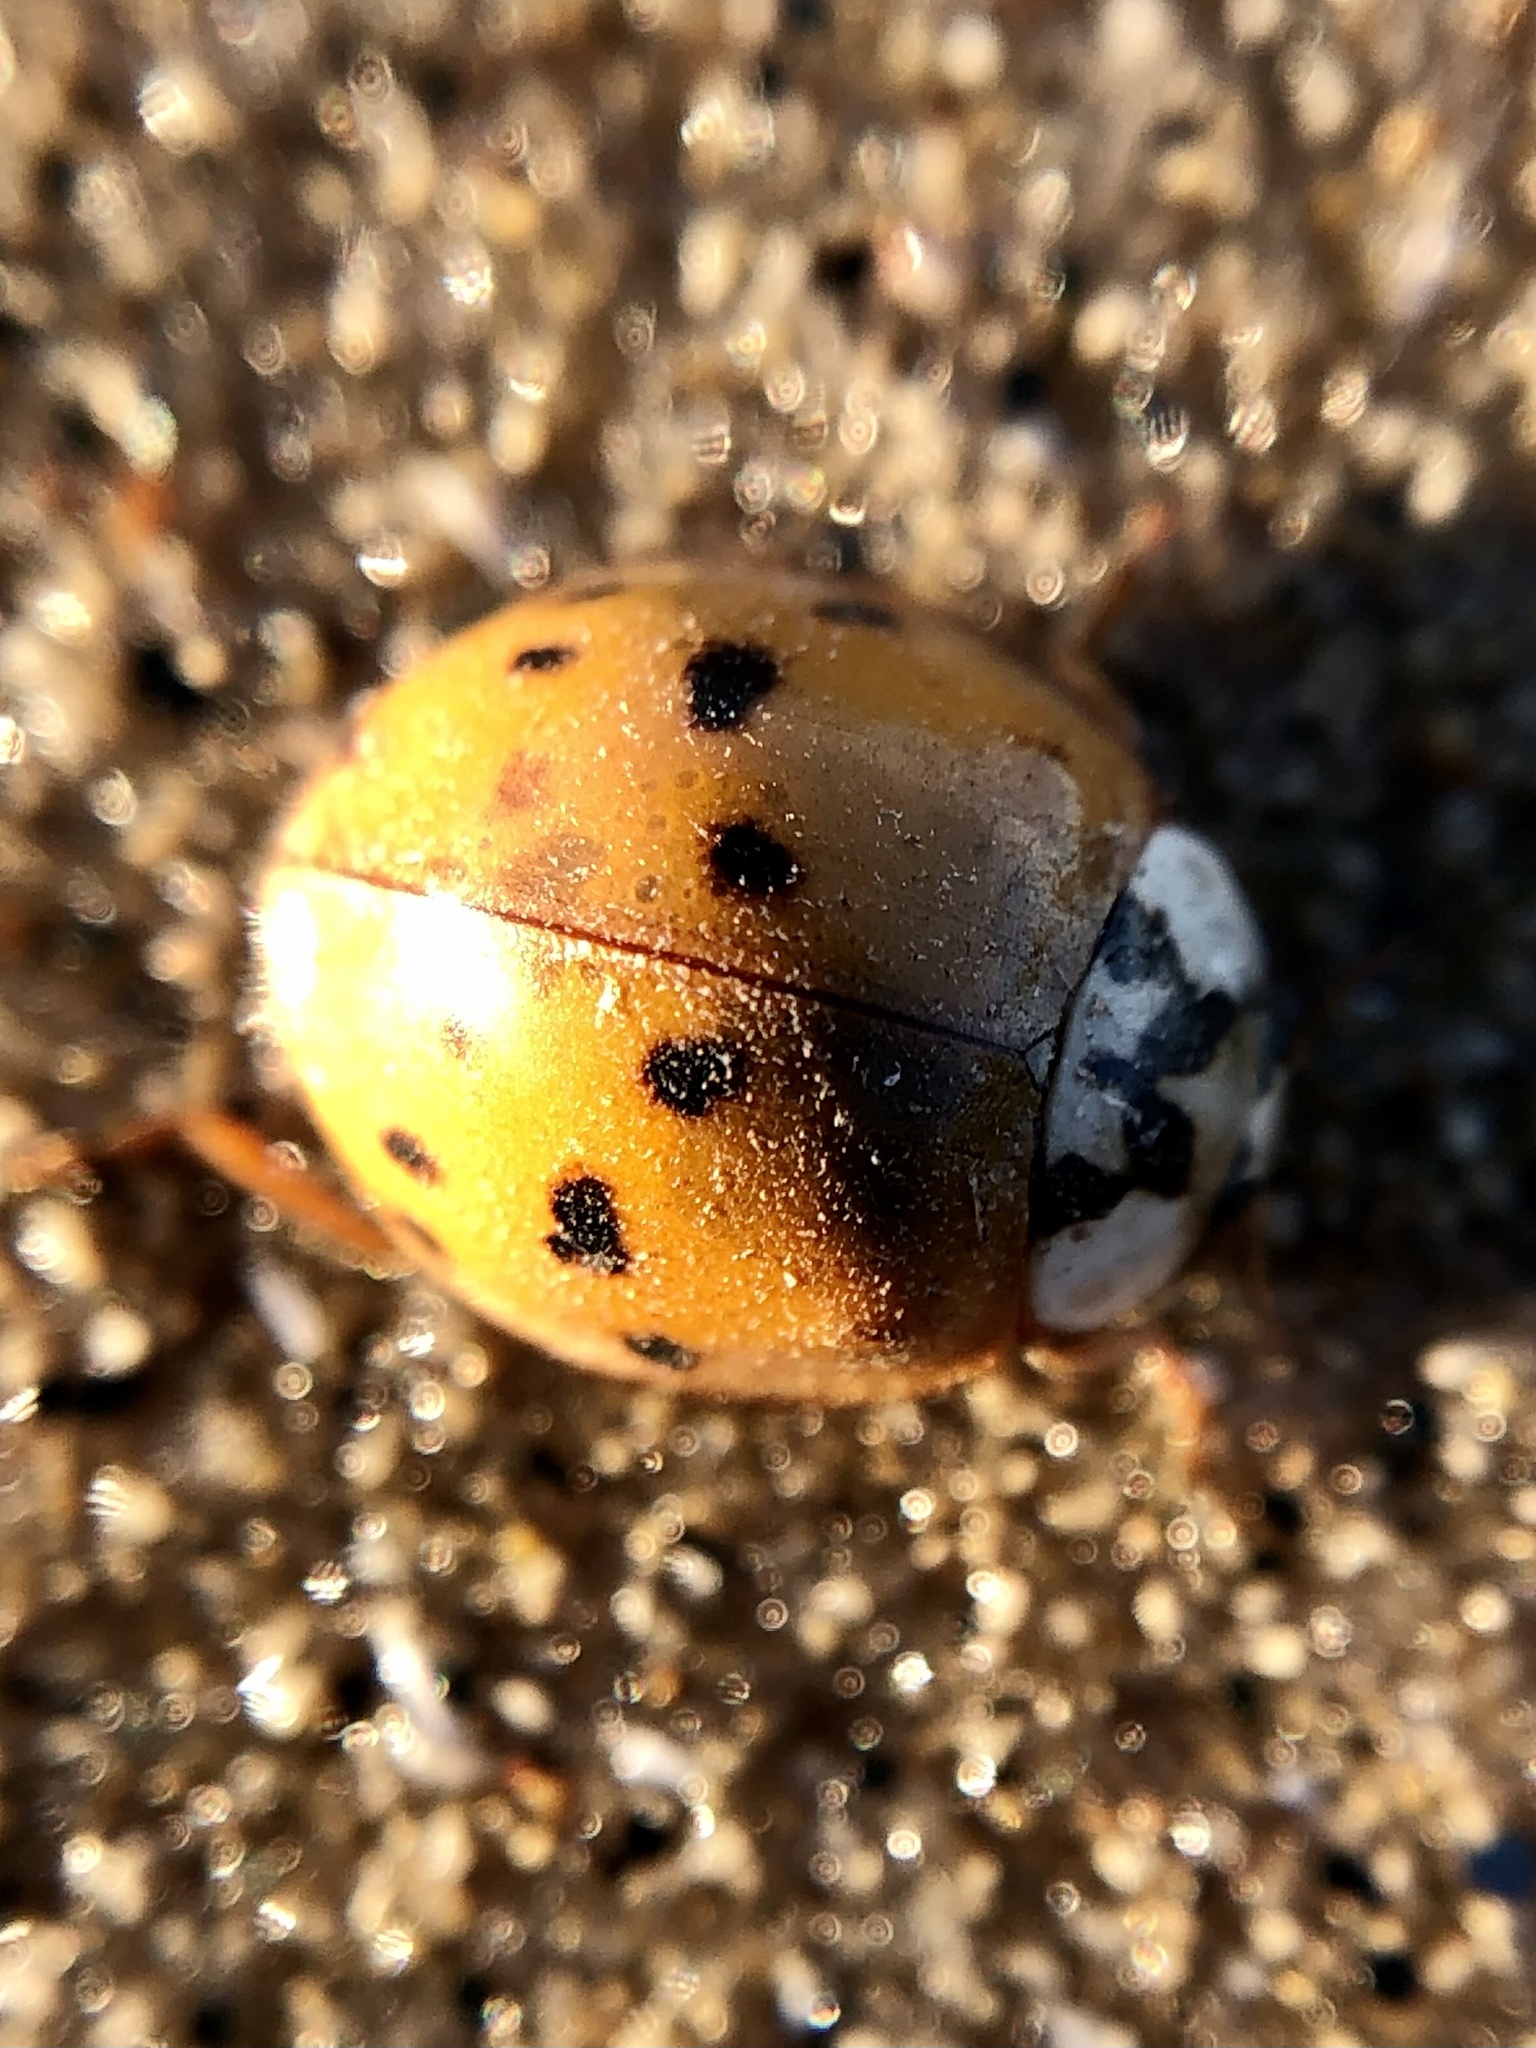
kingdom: Animalia
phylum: Arthropoda
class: Insecta
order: Coleoptera
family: Coccinellidae
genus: Harmonia
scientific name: Harmonia axyridis
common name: Harlequin ladybird
